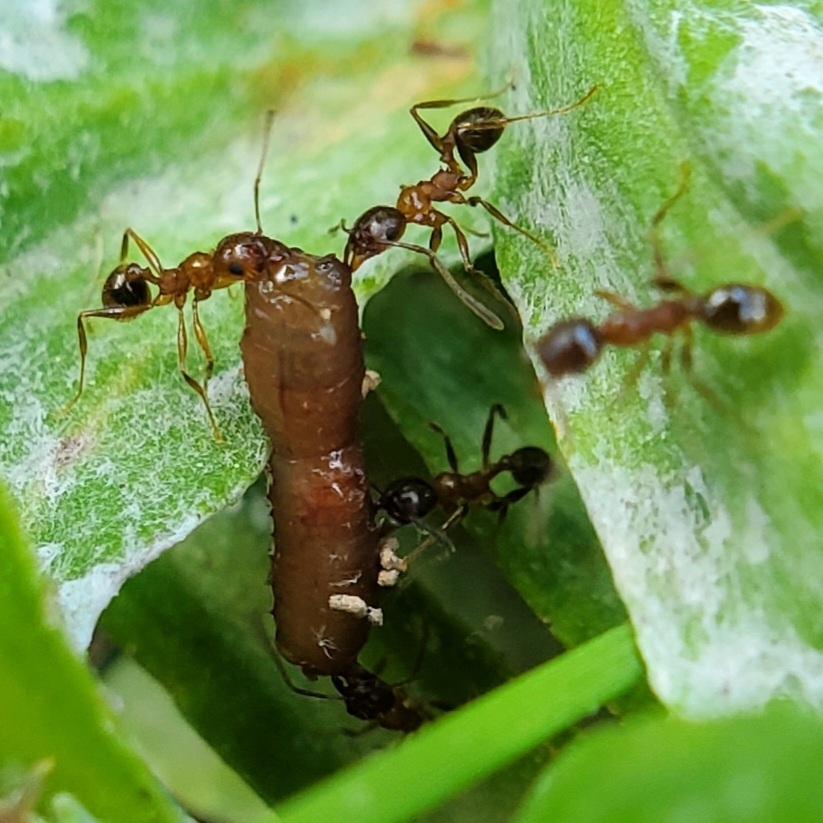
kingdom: Animalia
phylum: Arthropoda
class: Insecta
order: Hymenoptera
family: Formicidae
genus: Pheidole
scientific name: Pheidole dentata
